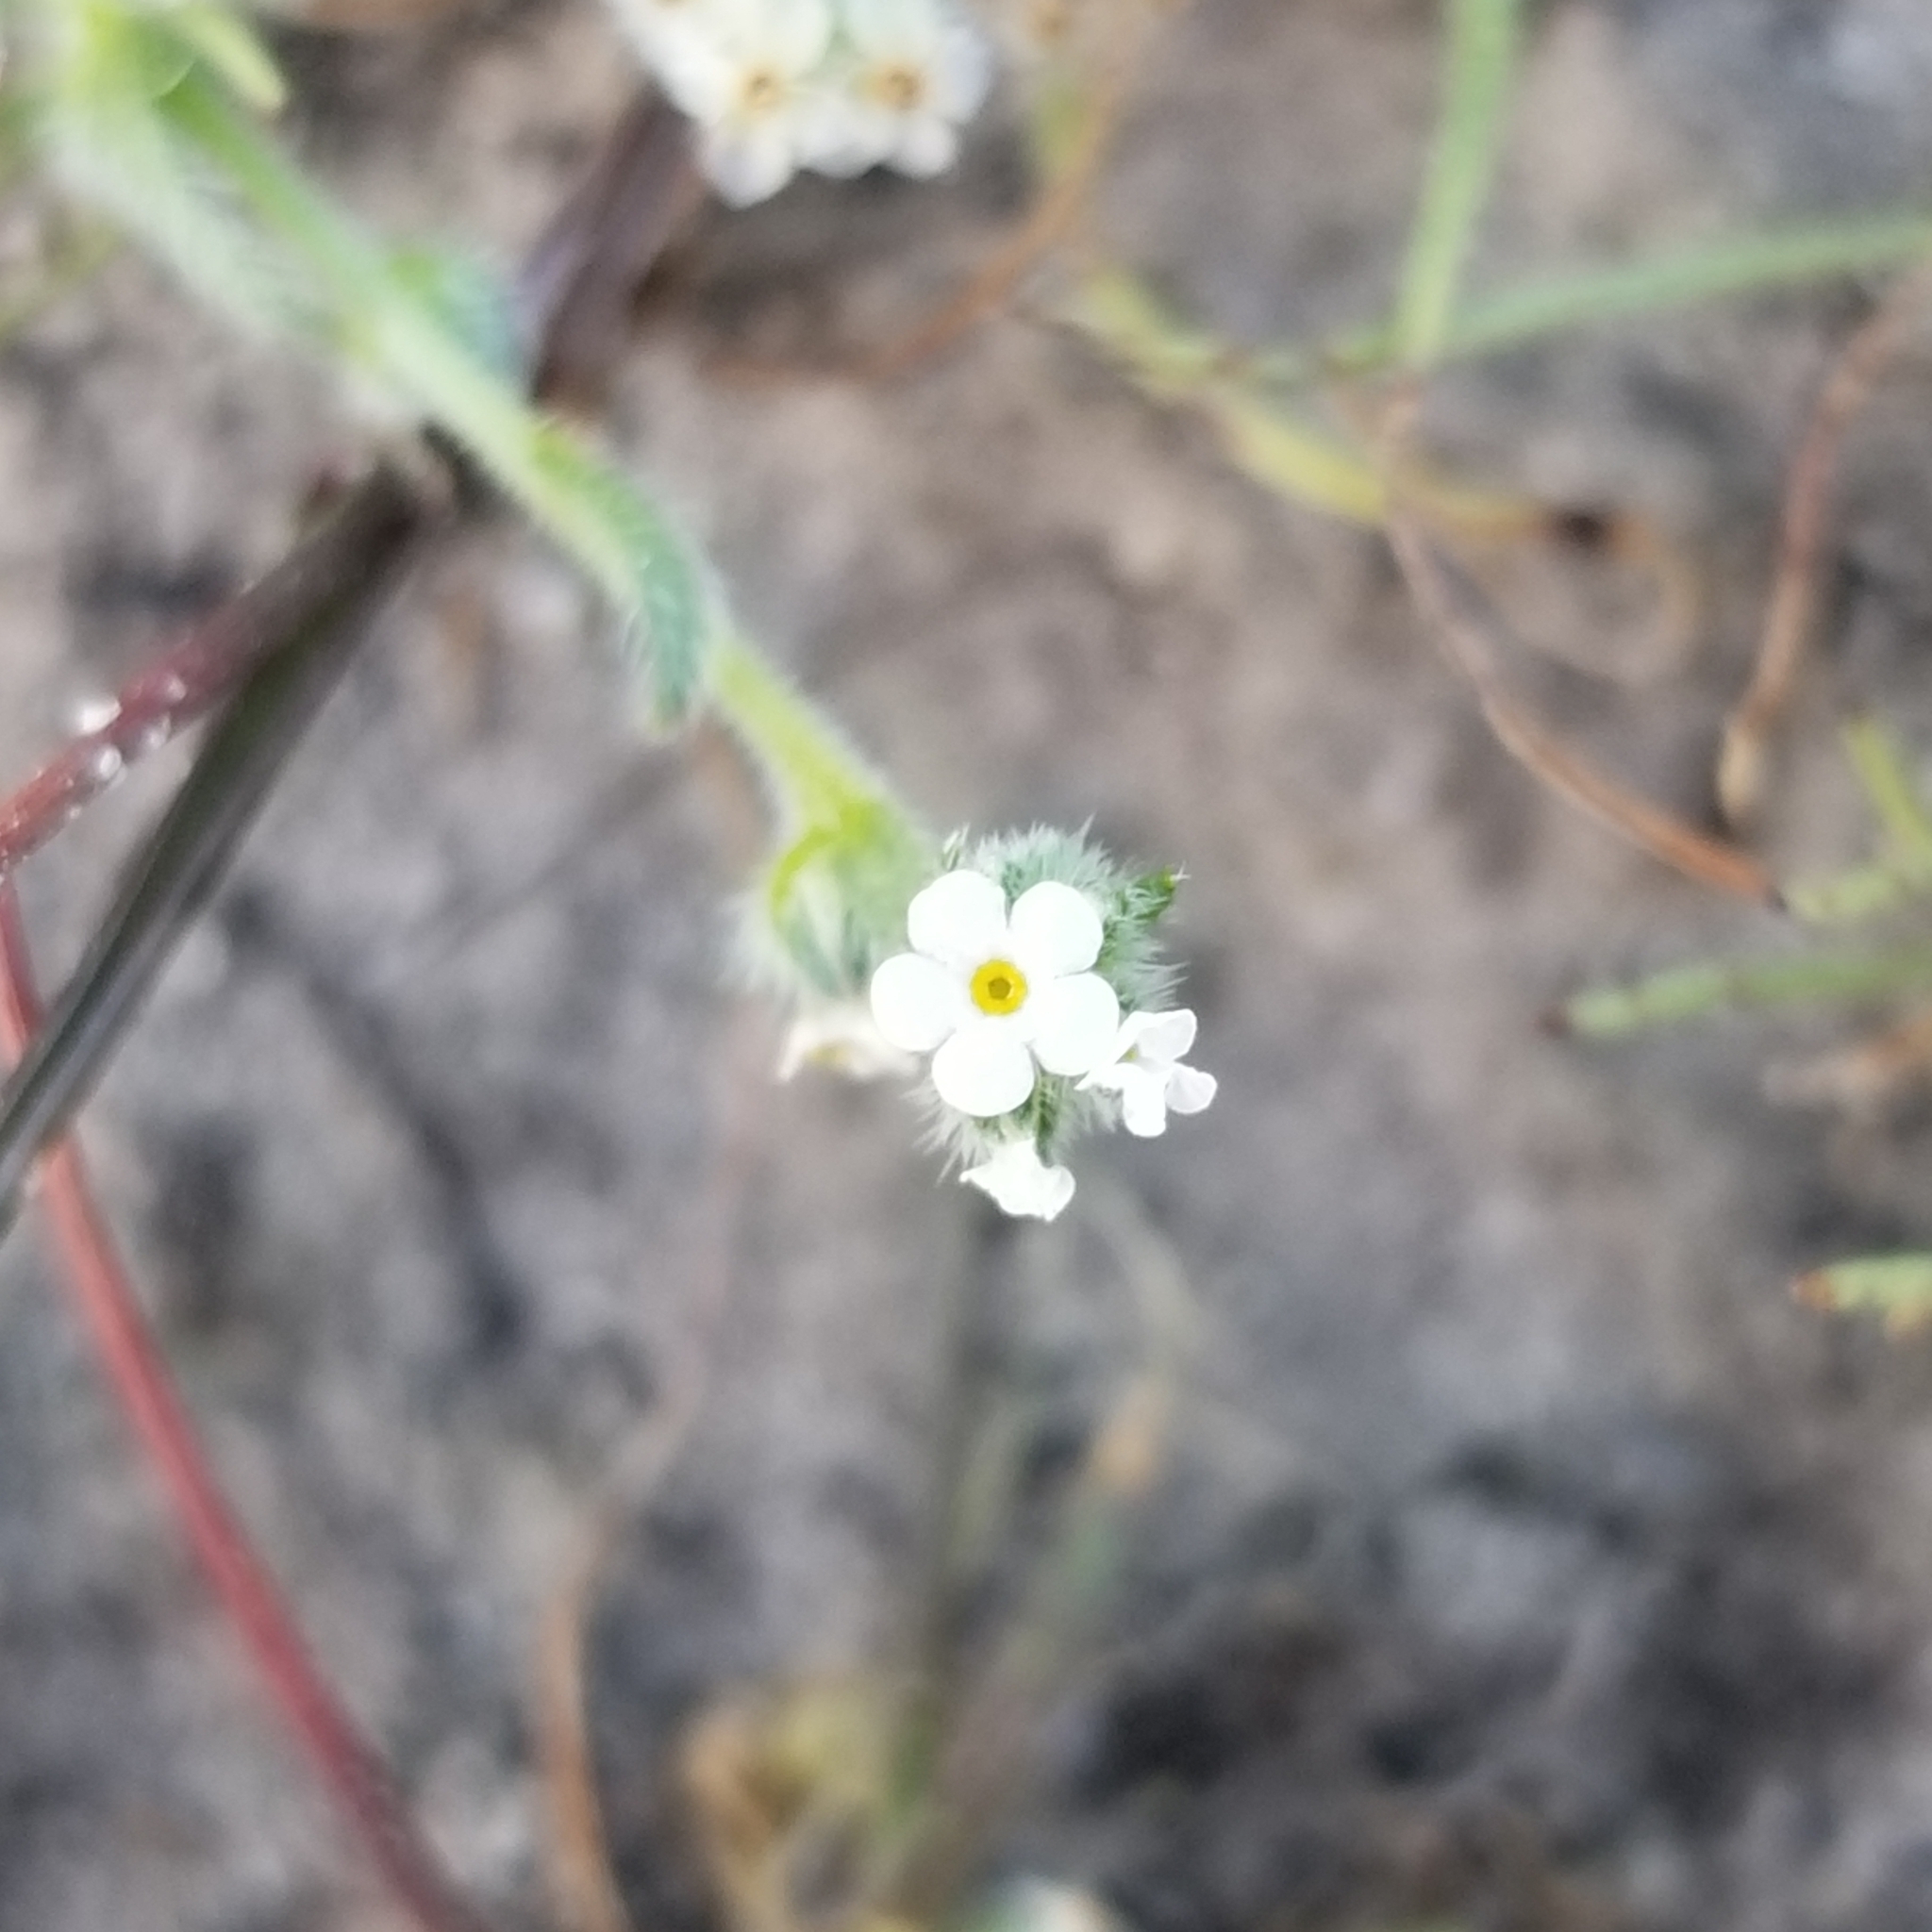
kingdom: Plantae
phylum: Tracheophyta
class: Magnoliopsida
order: Boraginales
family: Boraginaceae
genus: Plagiobothrys
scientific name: Plagiobothrys collinus
